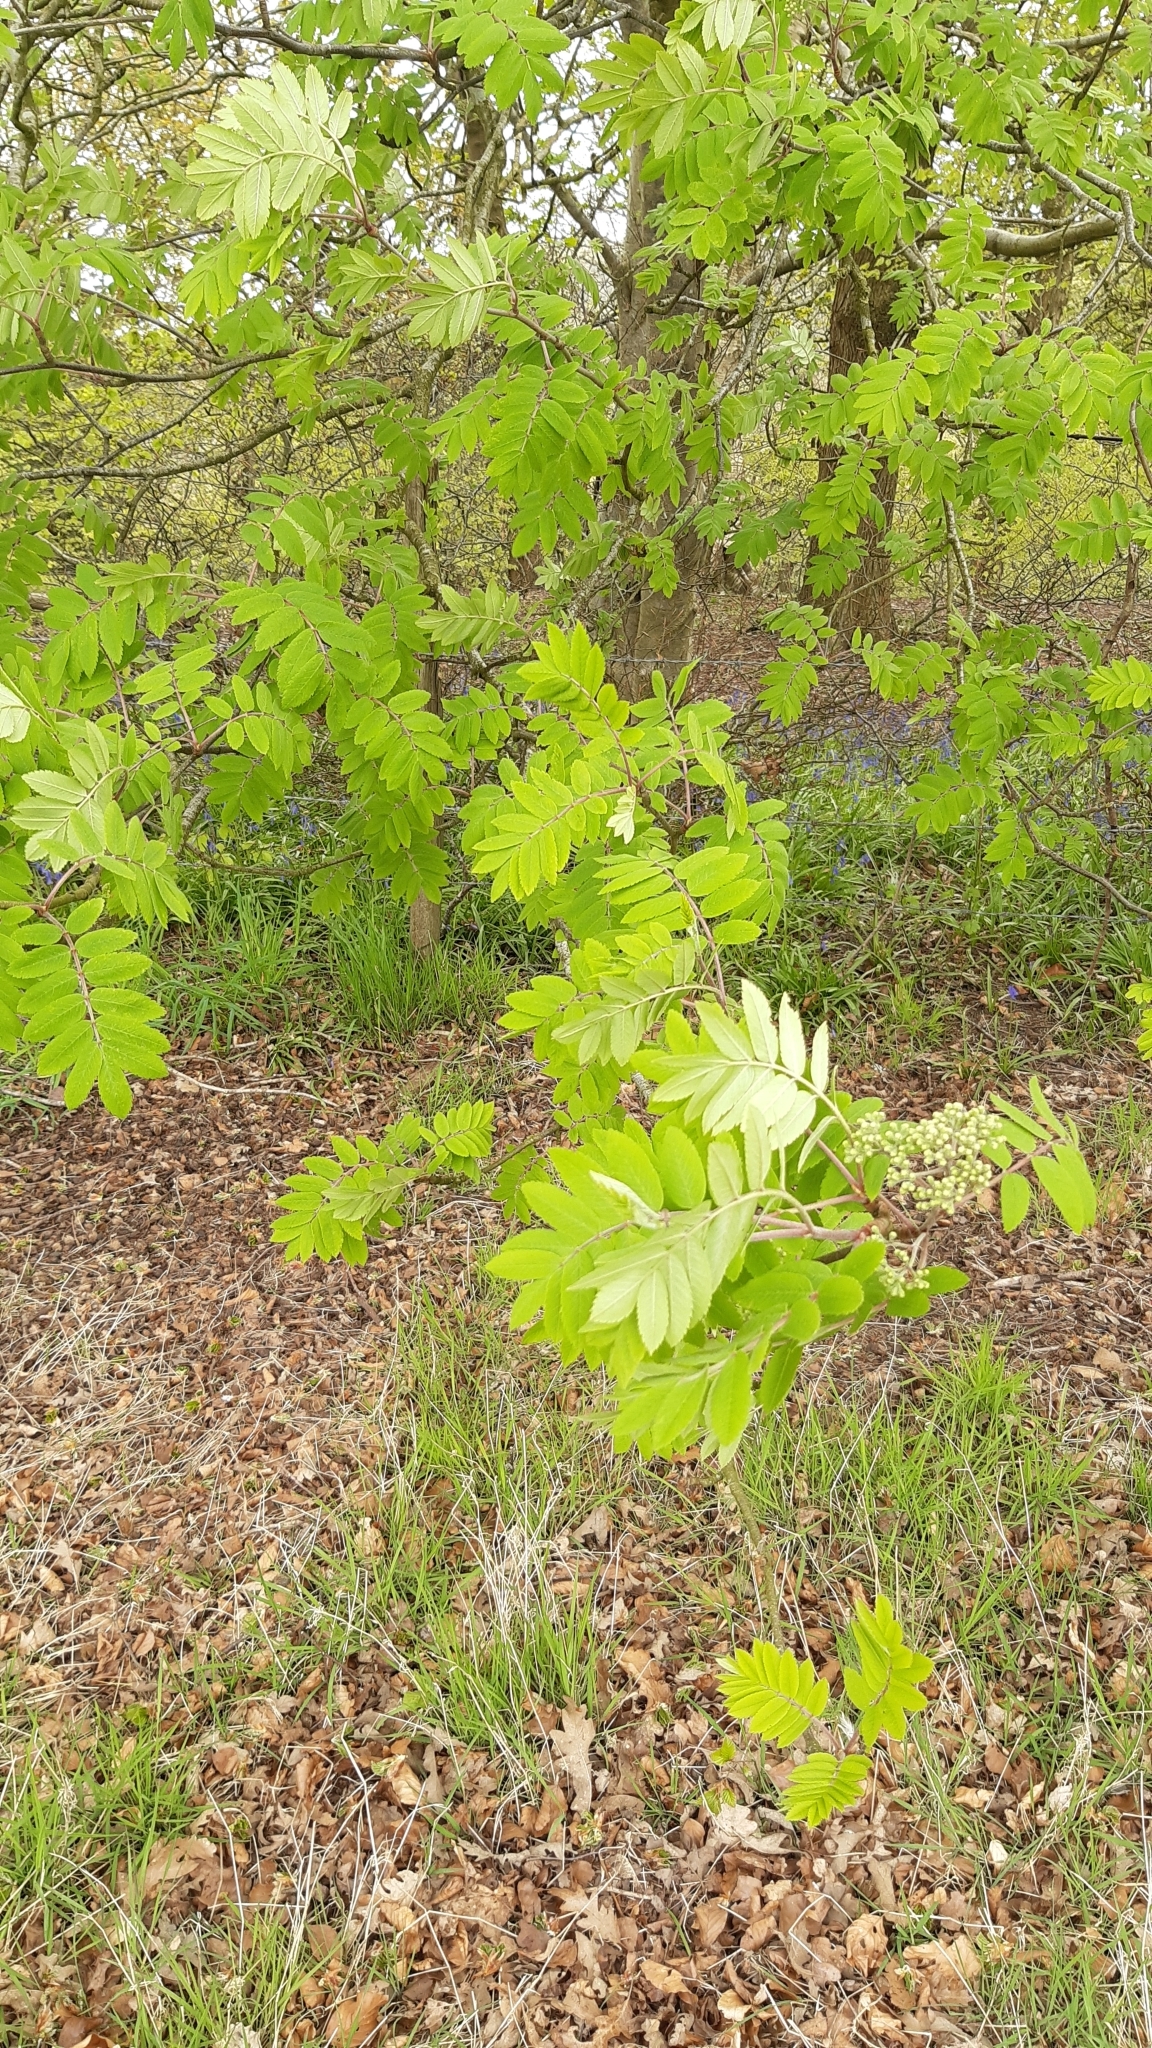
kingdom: Plantae
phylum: Tracheophyta
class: Magnoliopsida
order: Rosales
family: Rosaceae
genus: Sorbus
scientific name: Sorbus aucuparia
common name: Rowan
